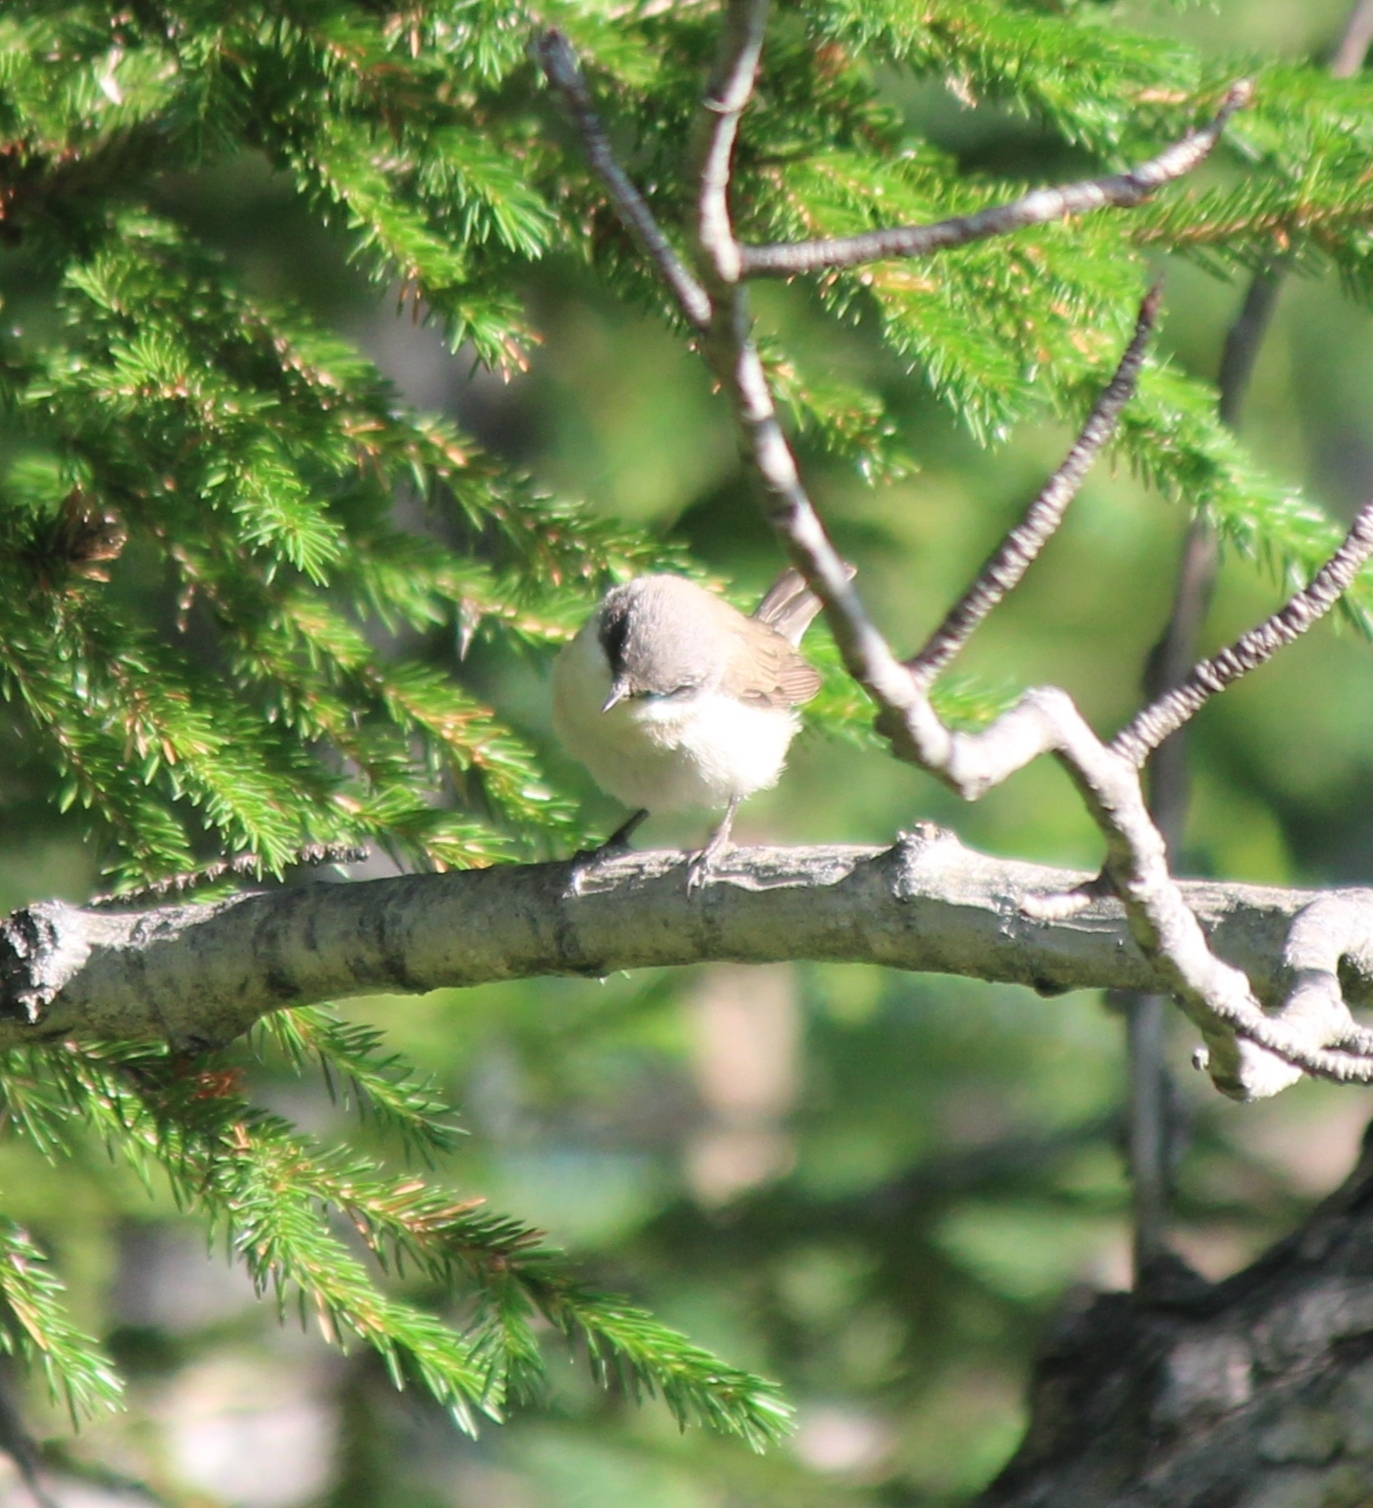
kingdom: Animalia
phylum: Chordata
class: Aves
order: Passeriformes
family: Sylviidae
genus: Sylvia
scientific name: Sylvia curruca
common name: Lesser whitethroat
